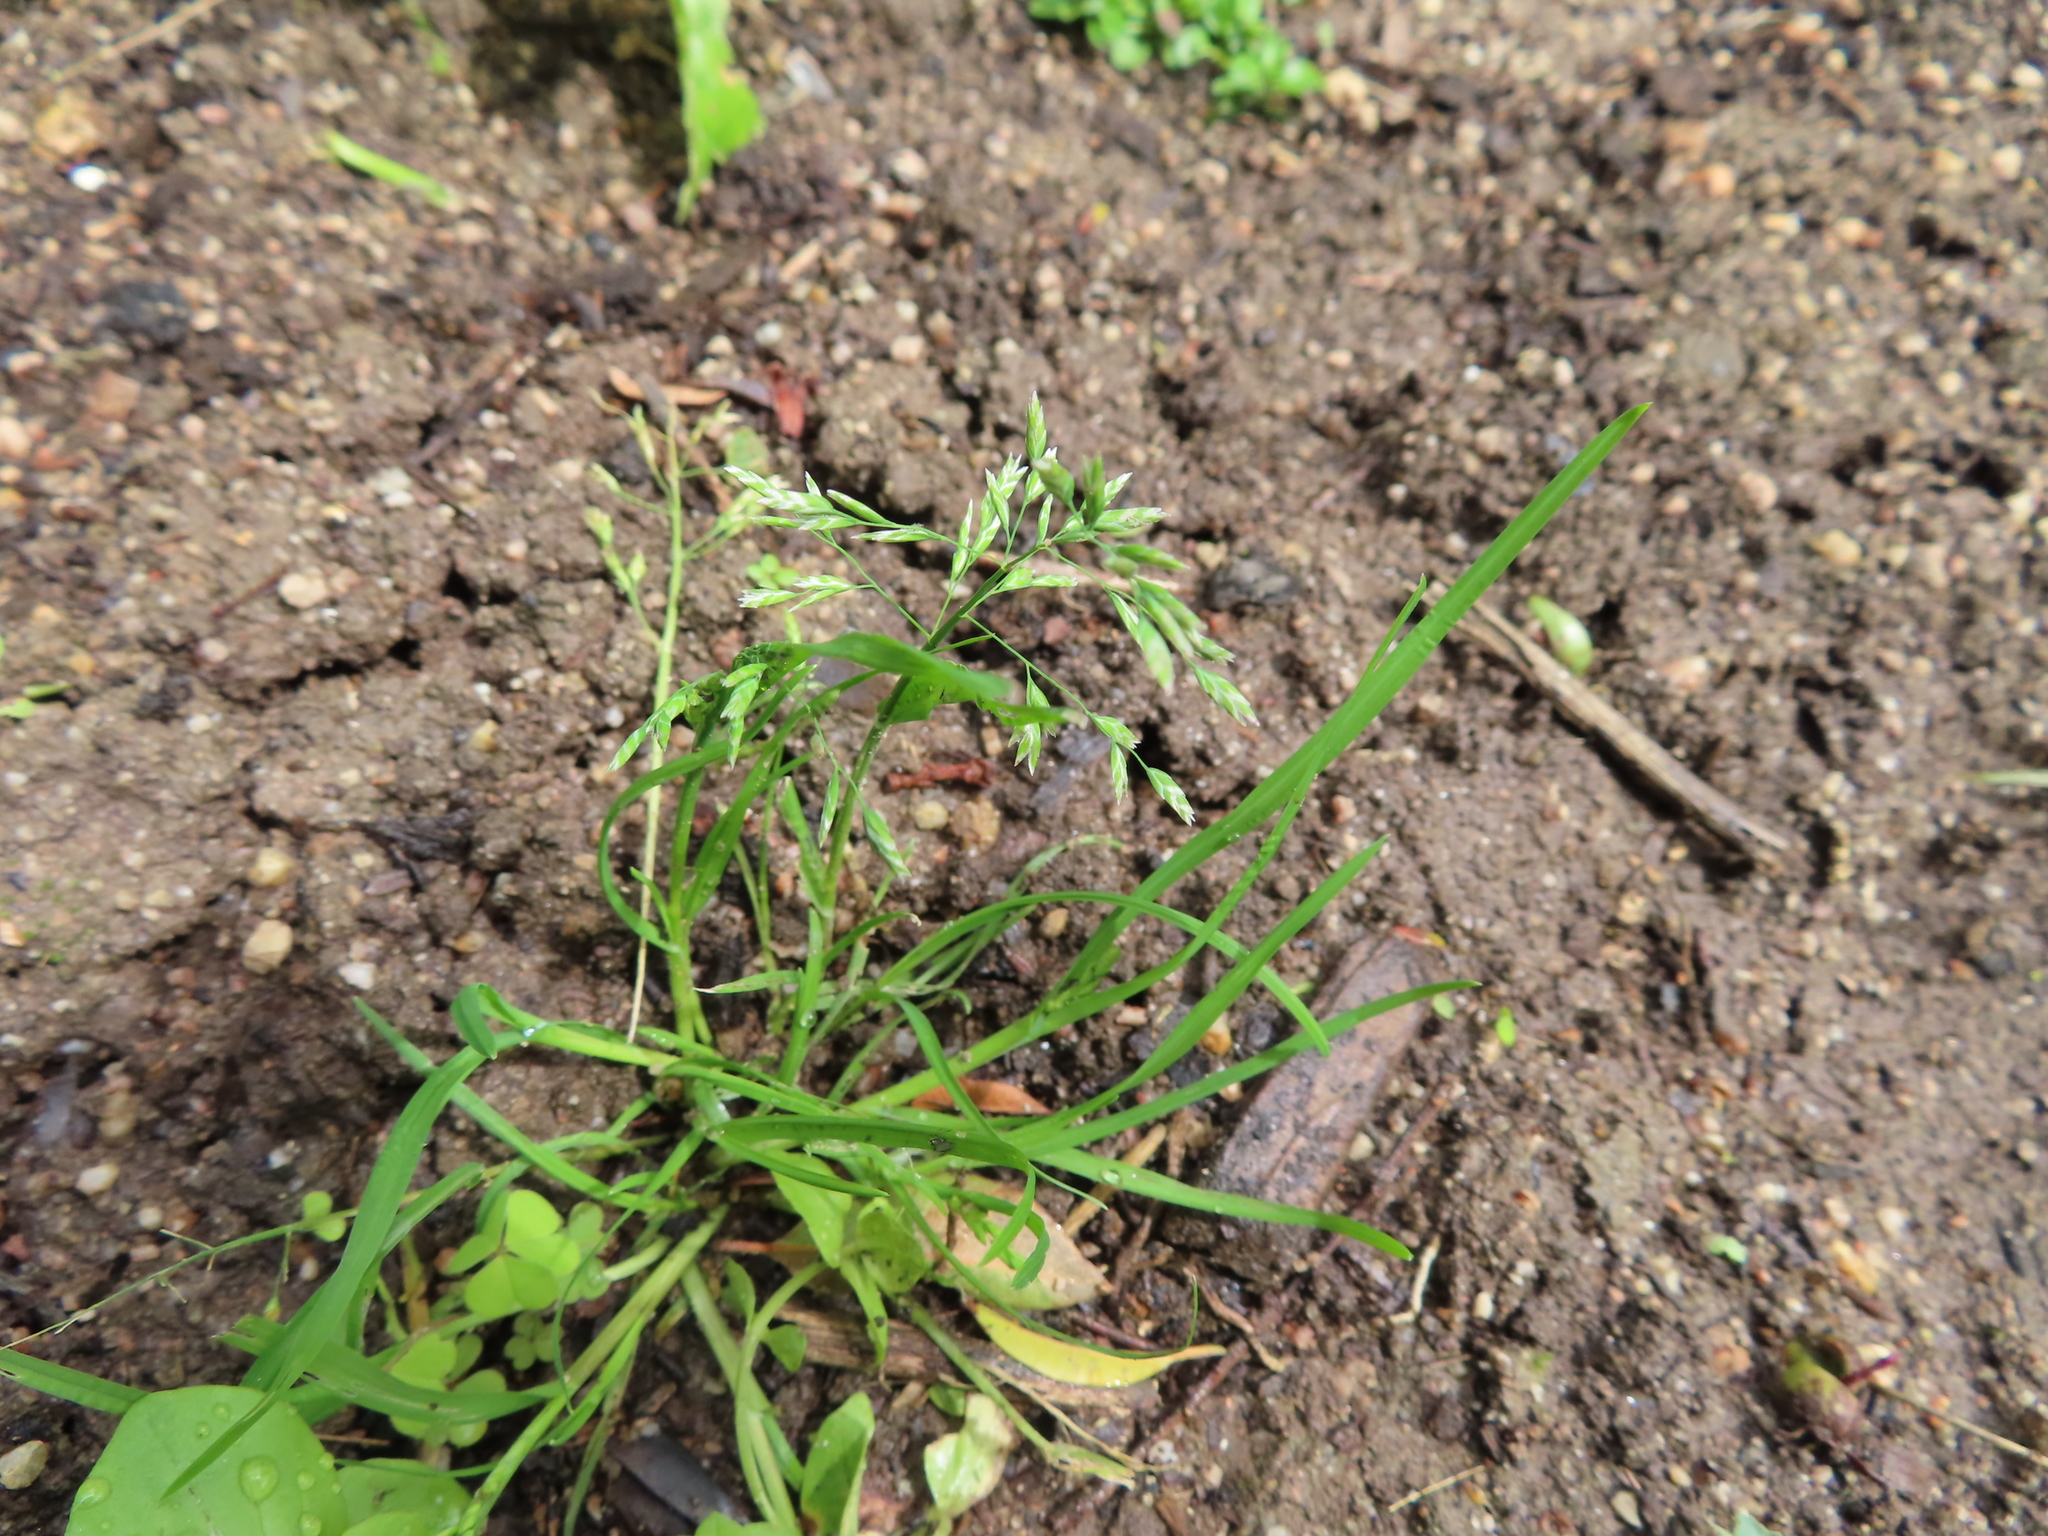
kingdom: Plantae
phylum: Tracheophyta
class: Liliopsida
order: Poales
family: Poaceae
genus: Poa
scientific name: Poa annua
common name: Annual bluegrass
